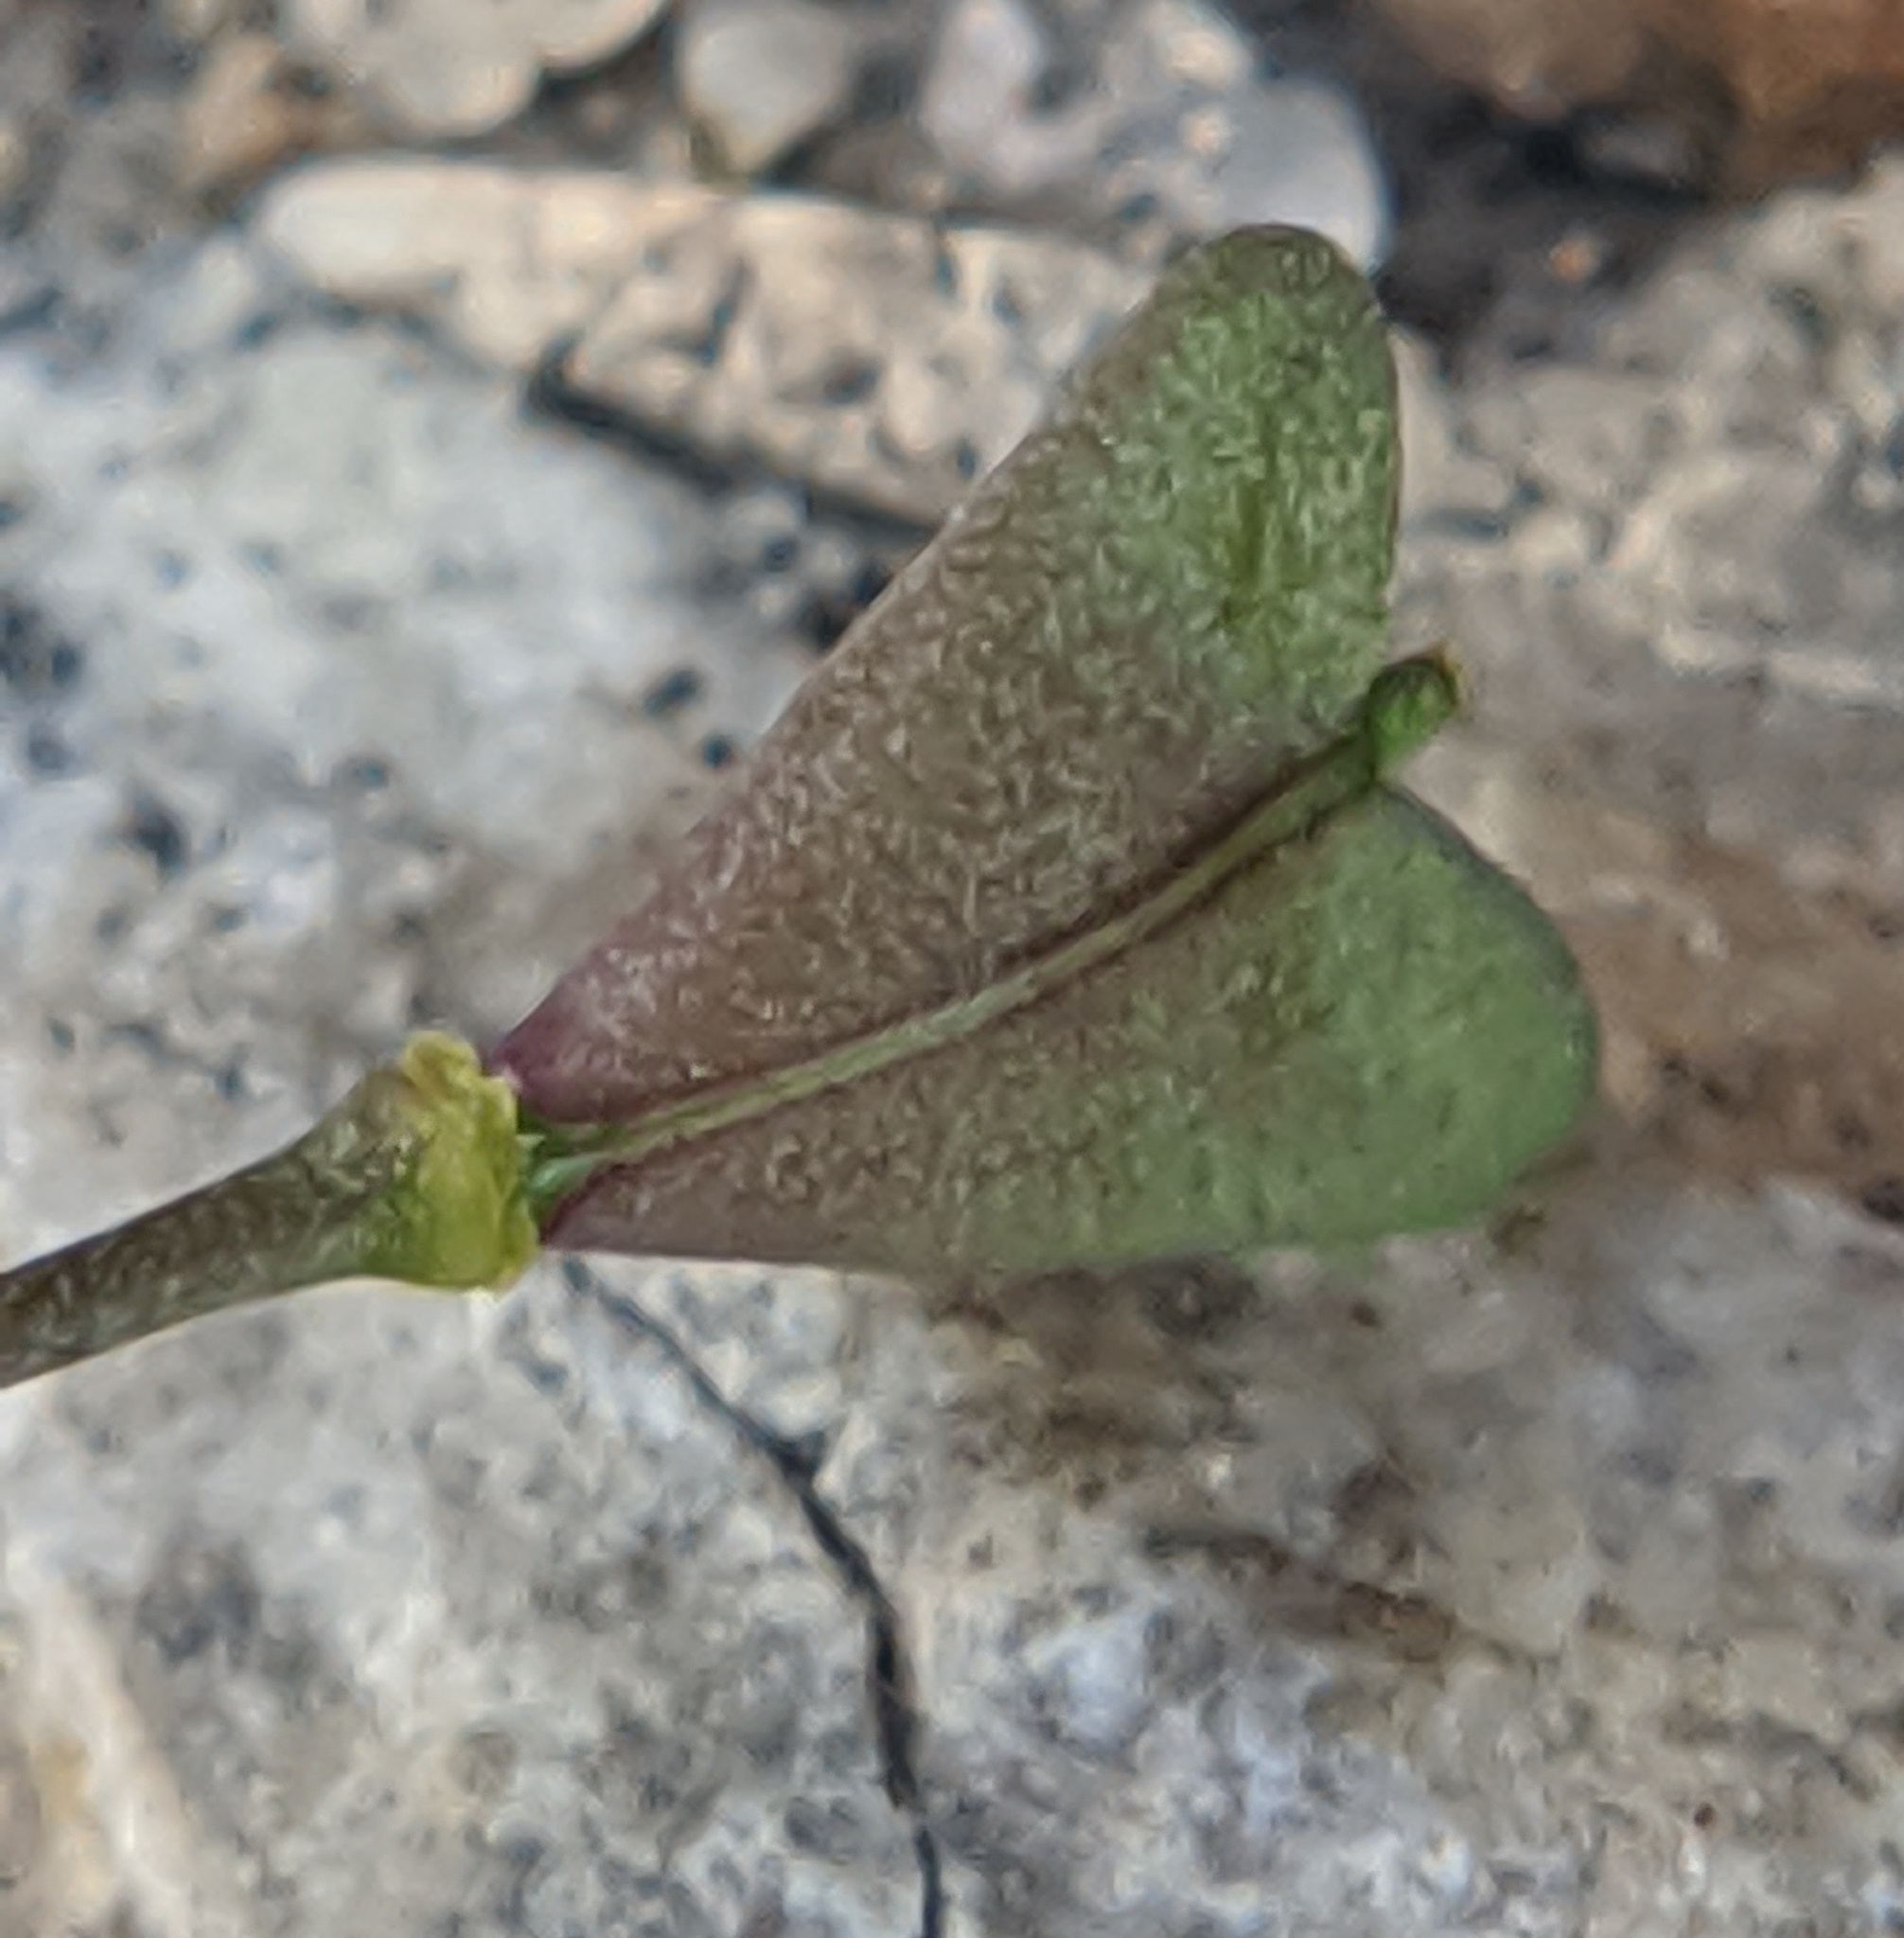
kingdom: Plantae
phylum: Tracheophyta
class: Magnoliopsida
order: Brassicales
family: Brassicaceae
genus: Capsella
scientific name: Capsella bursa-pastoris
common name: Shepherd's purse
